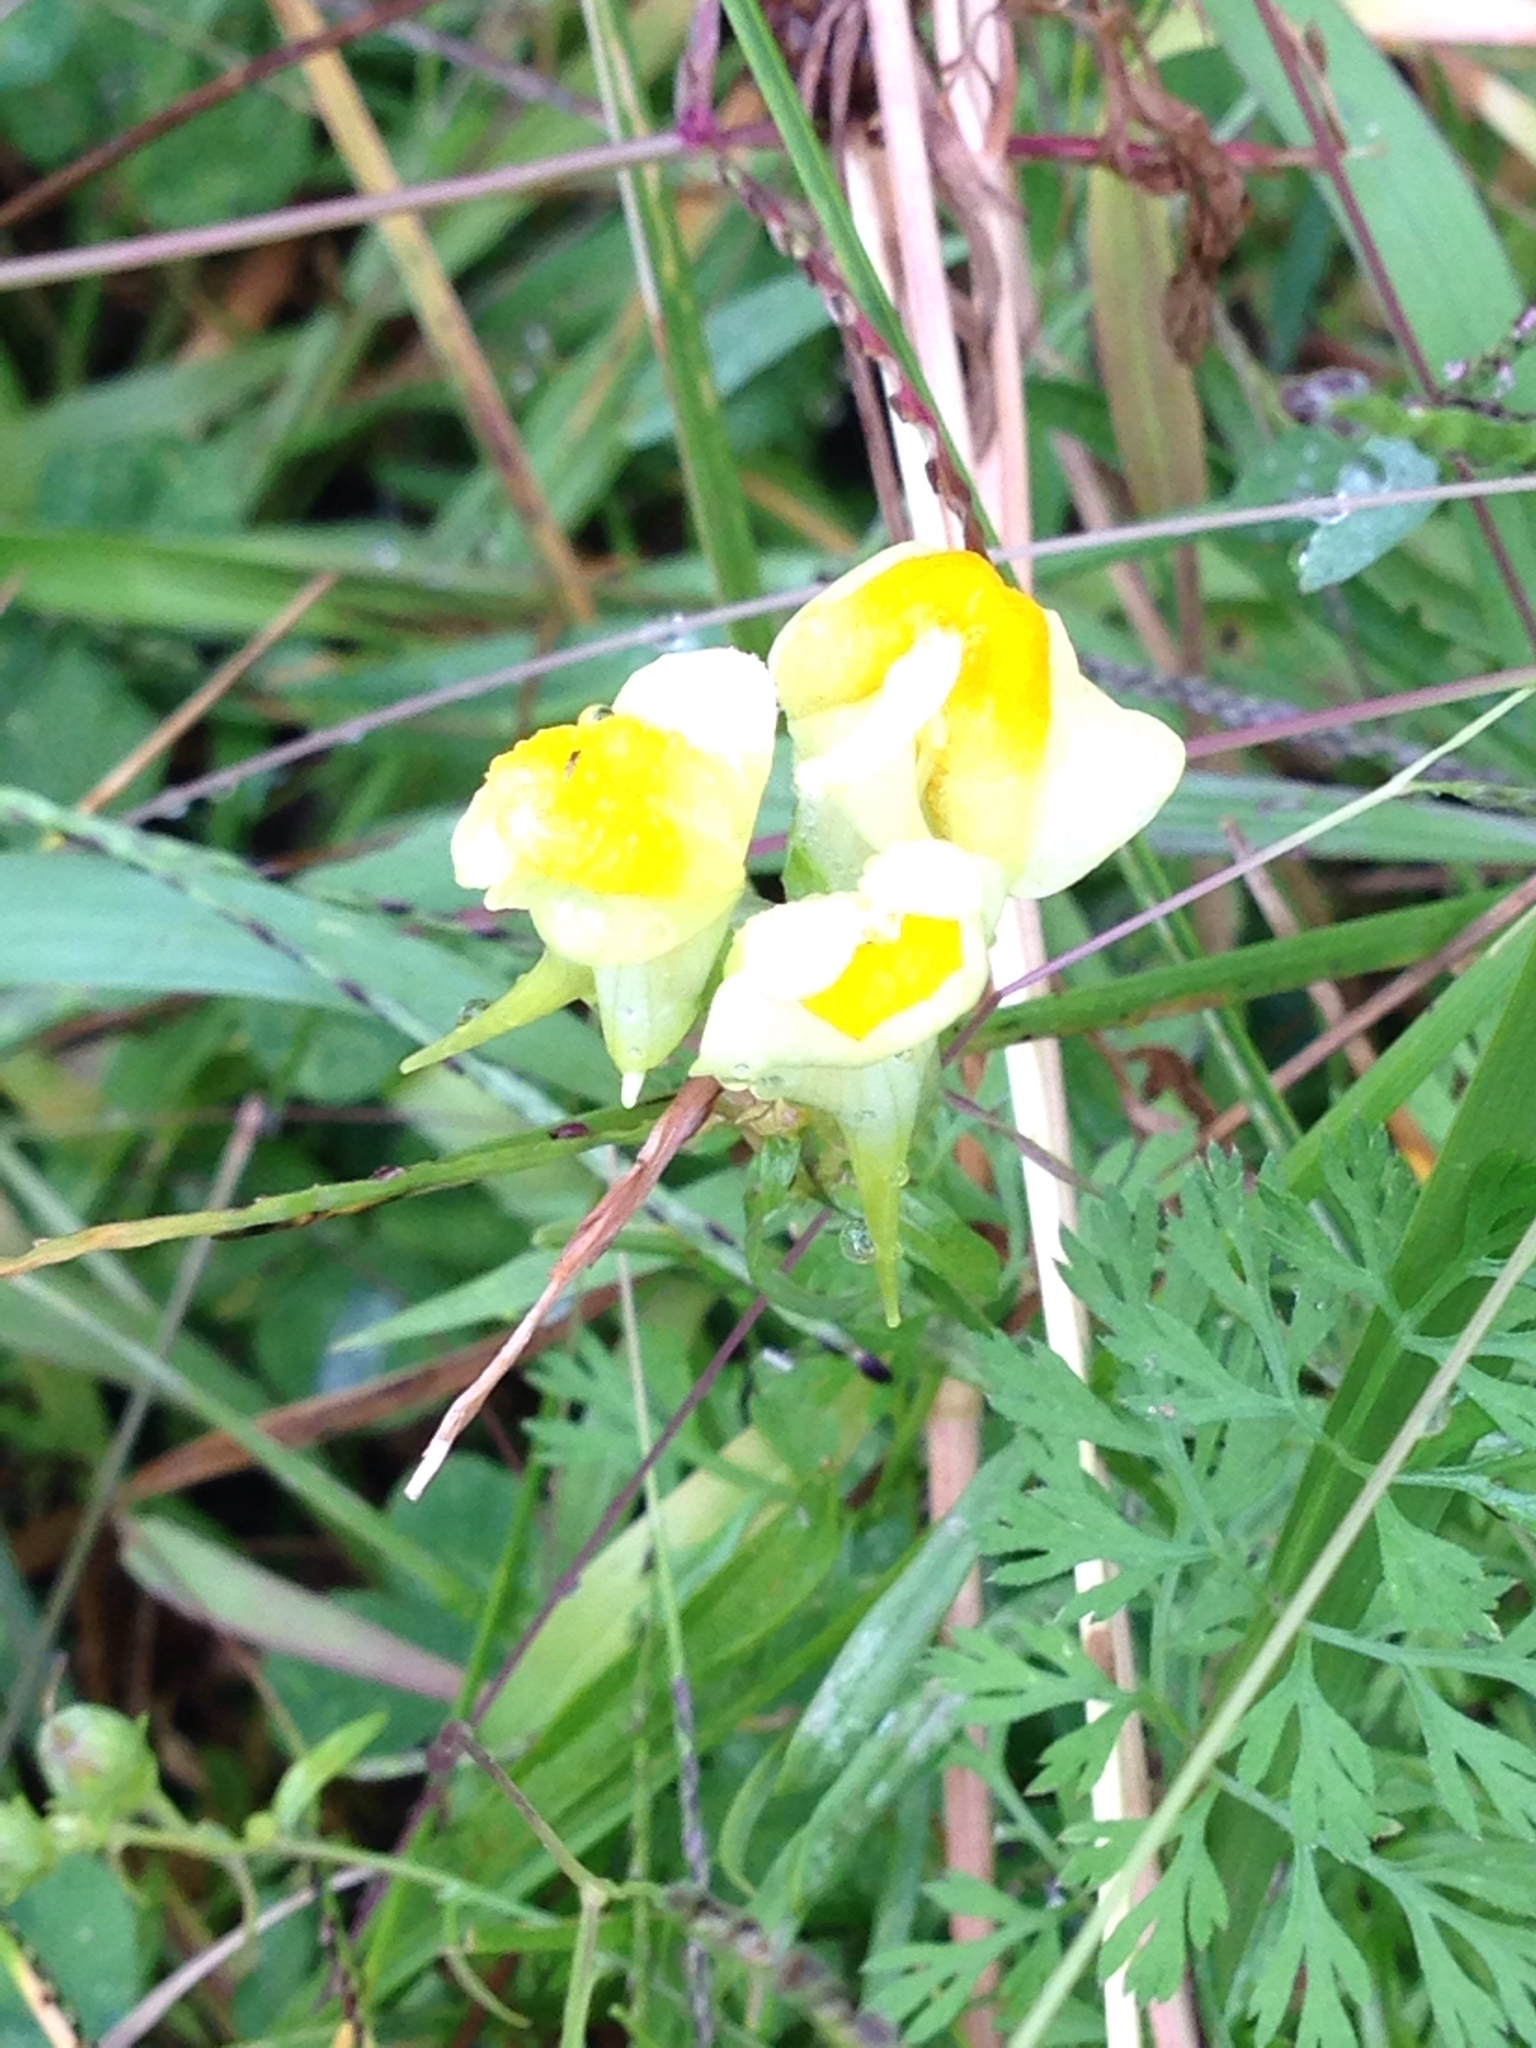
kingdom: Plantae
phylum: Tracheophyta
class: Magnoliopsida
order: Lamiales
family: Plantaginaceae
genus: Linaria
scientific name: Linaria vulgaris
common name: Butter and eggs
